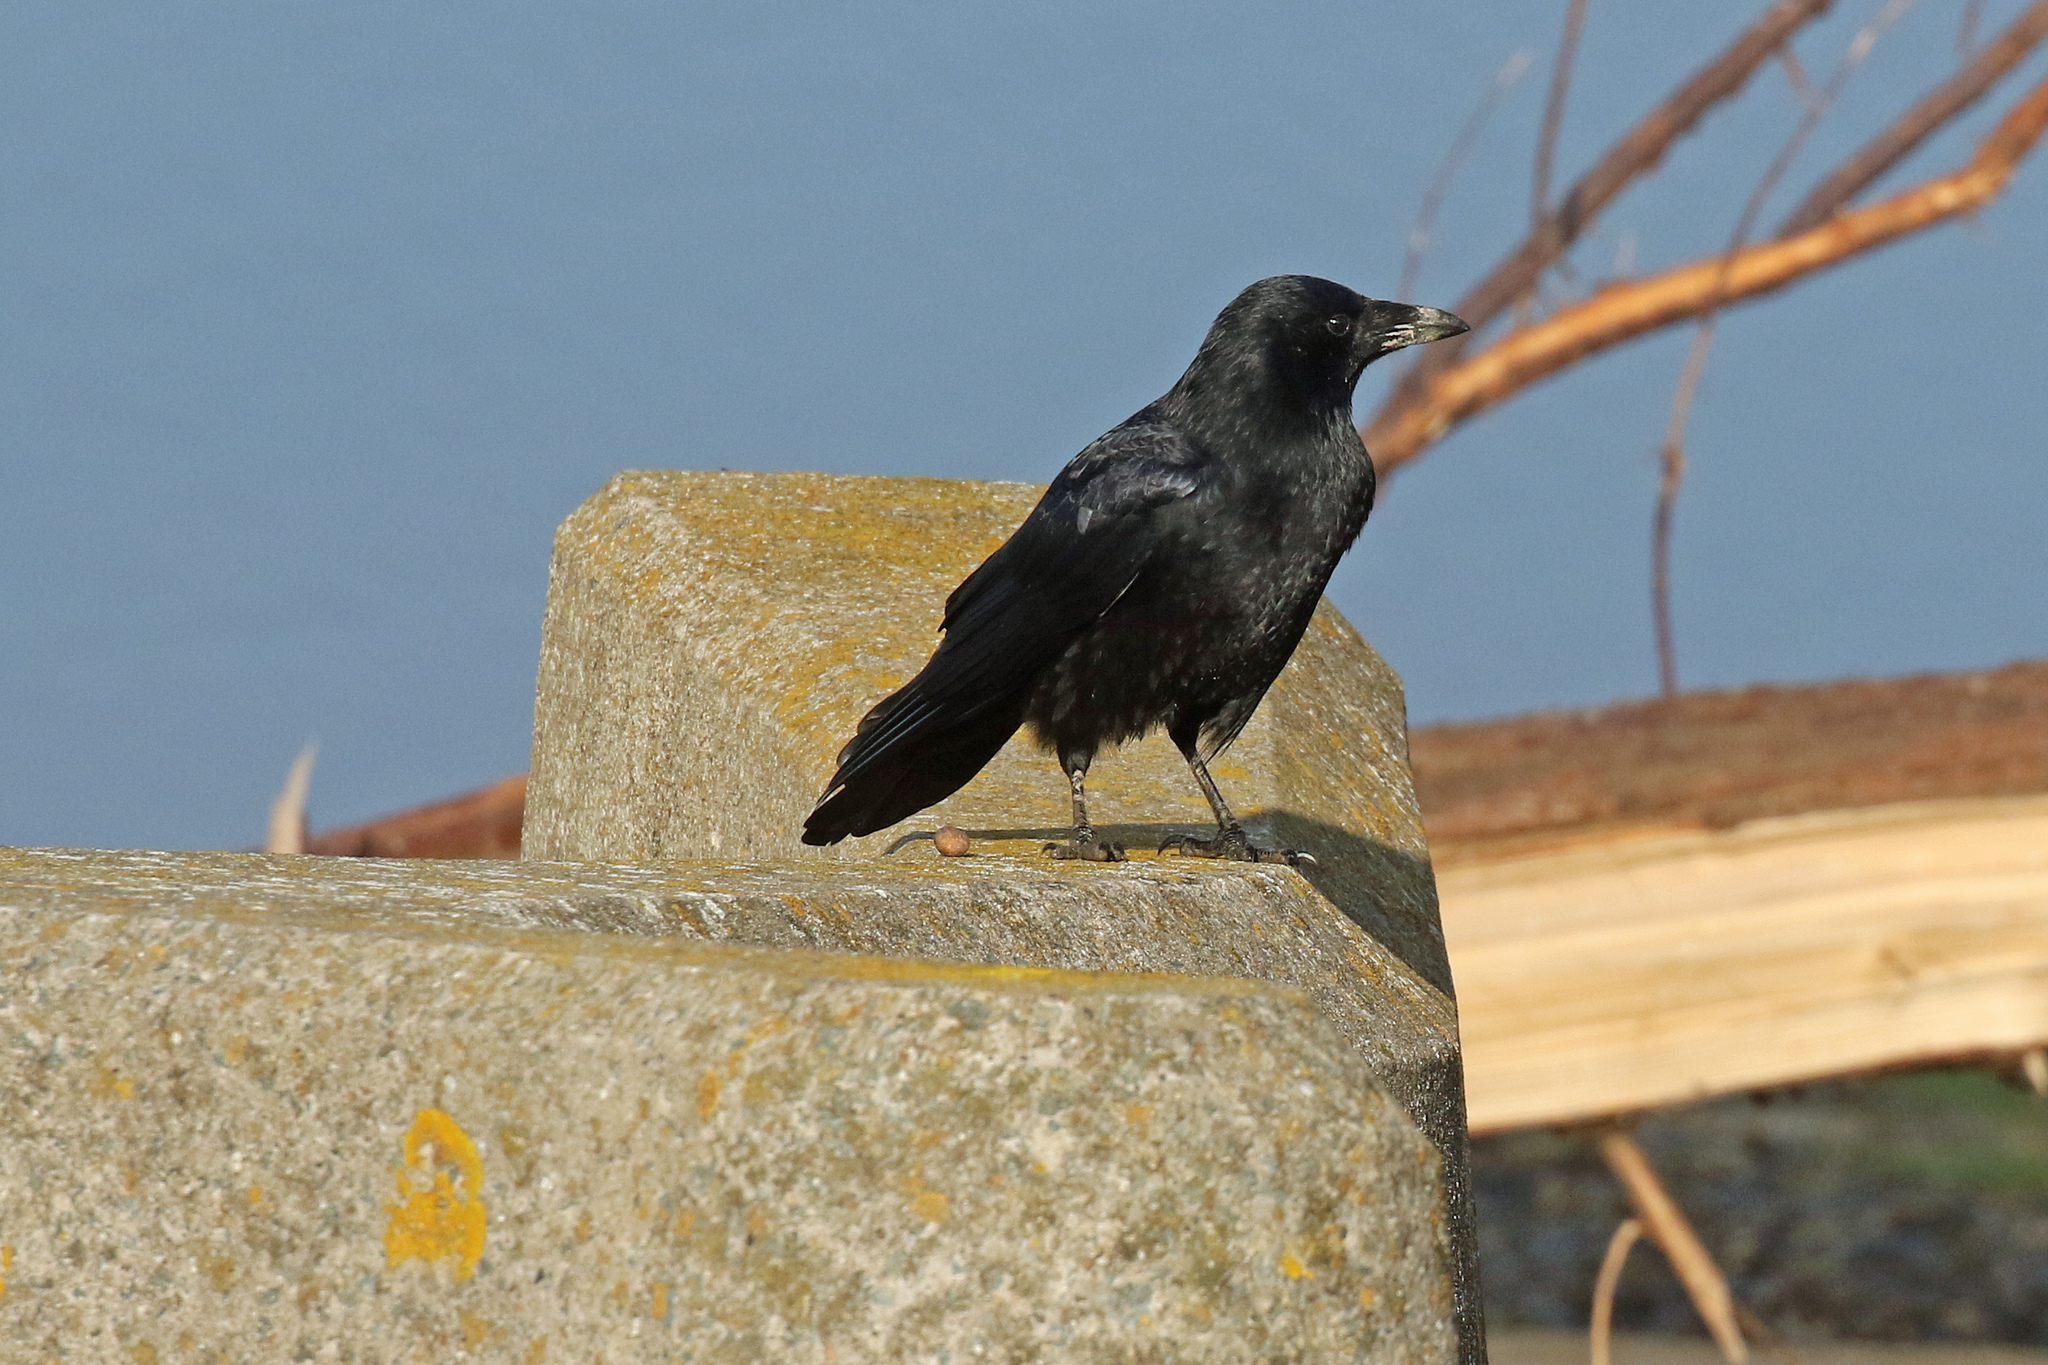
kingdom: Animalia
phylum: Chordata
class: Aves
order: Passeriformes
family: Corvidae
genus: Corvus
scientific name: Corvus corone
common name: Carrion crow
